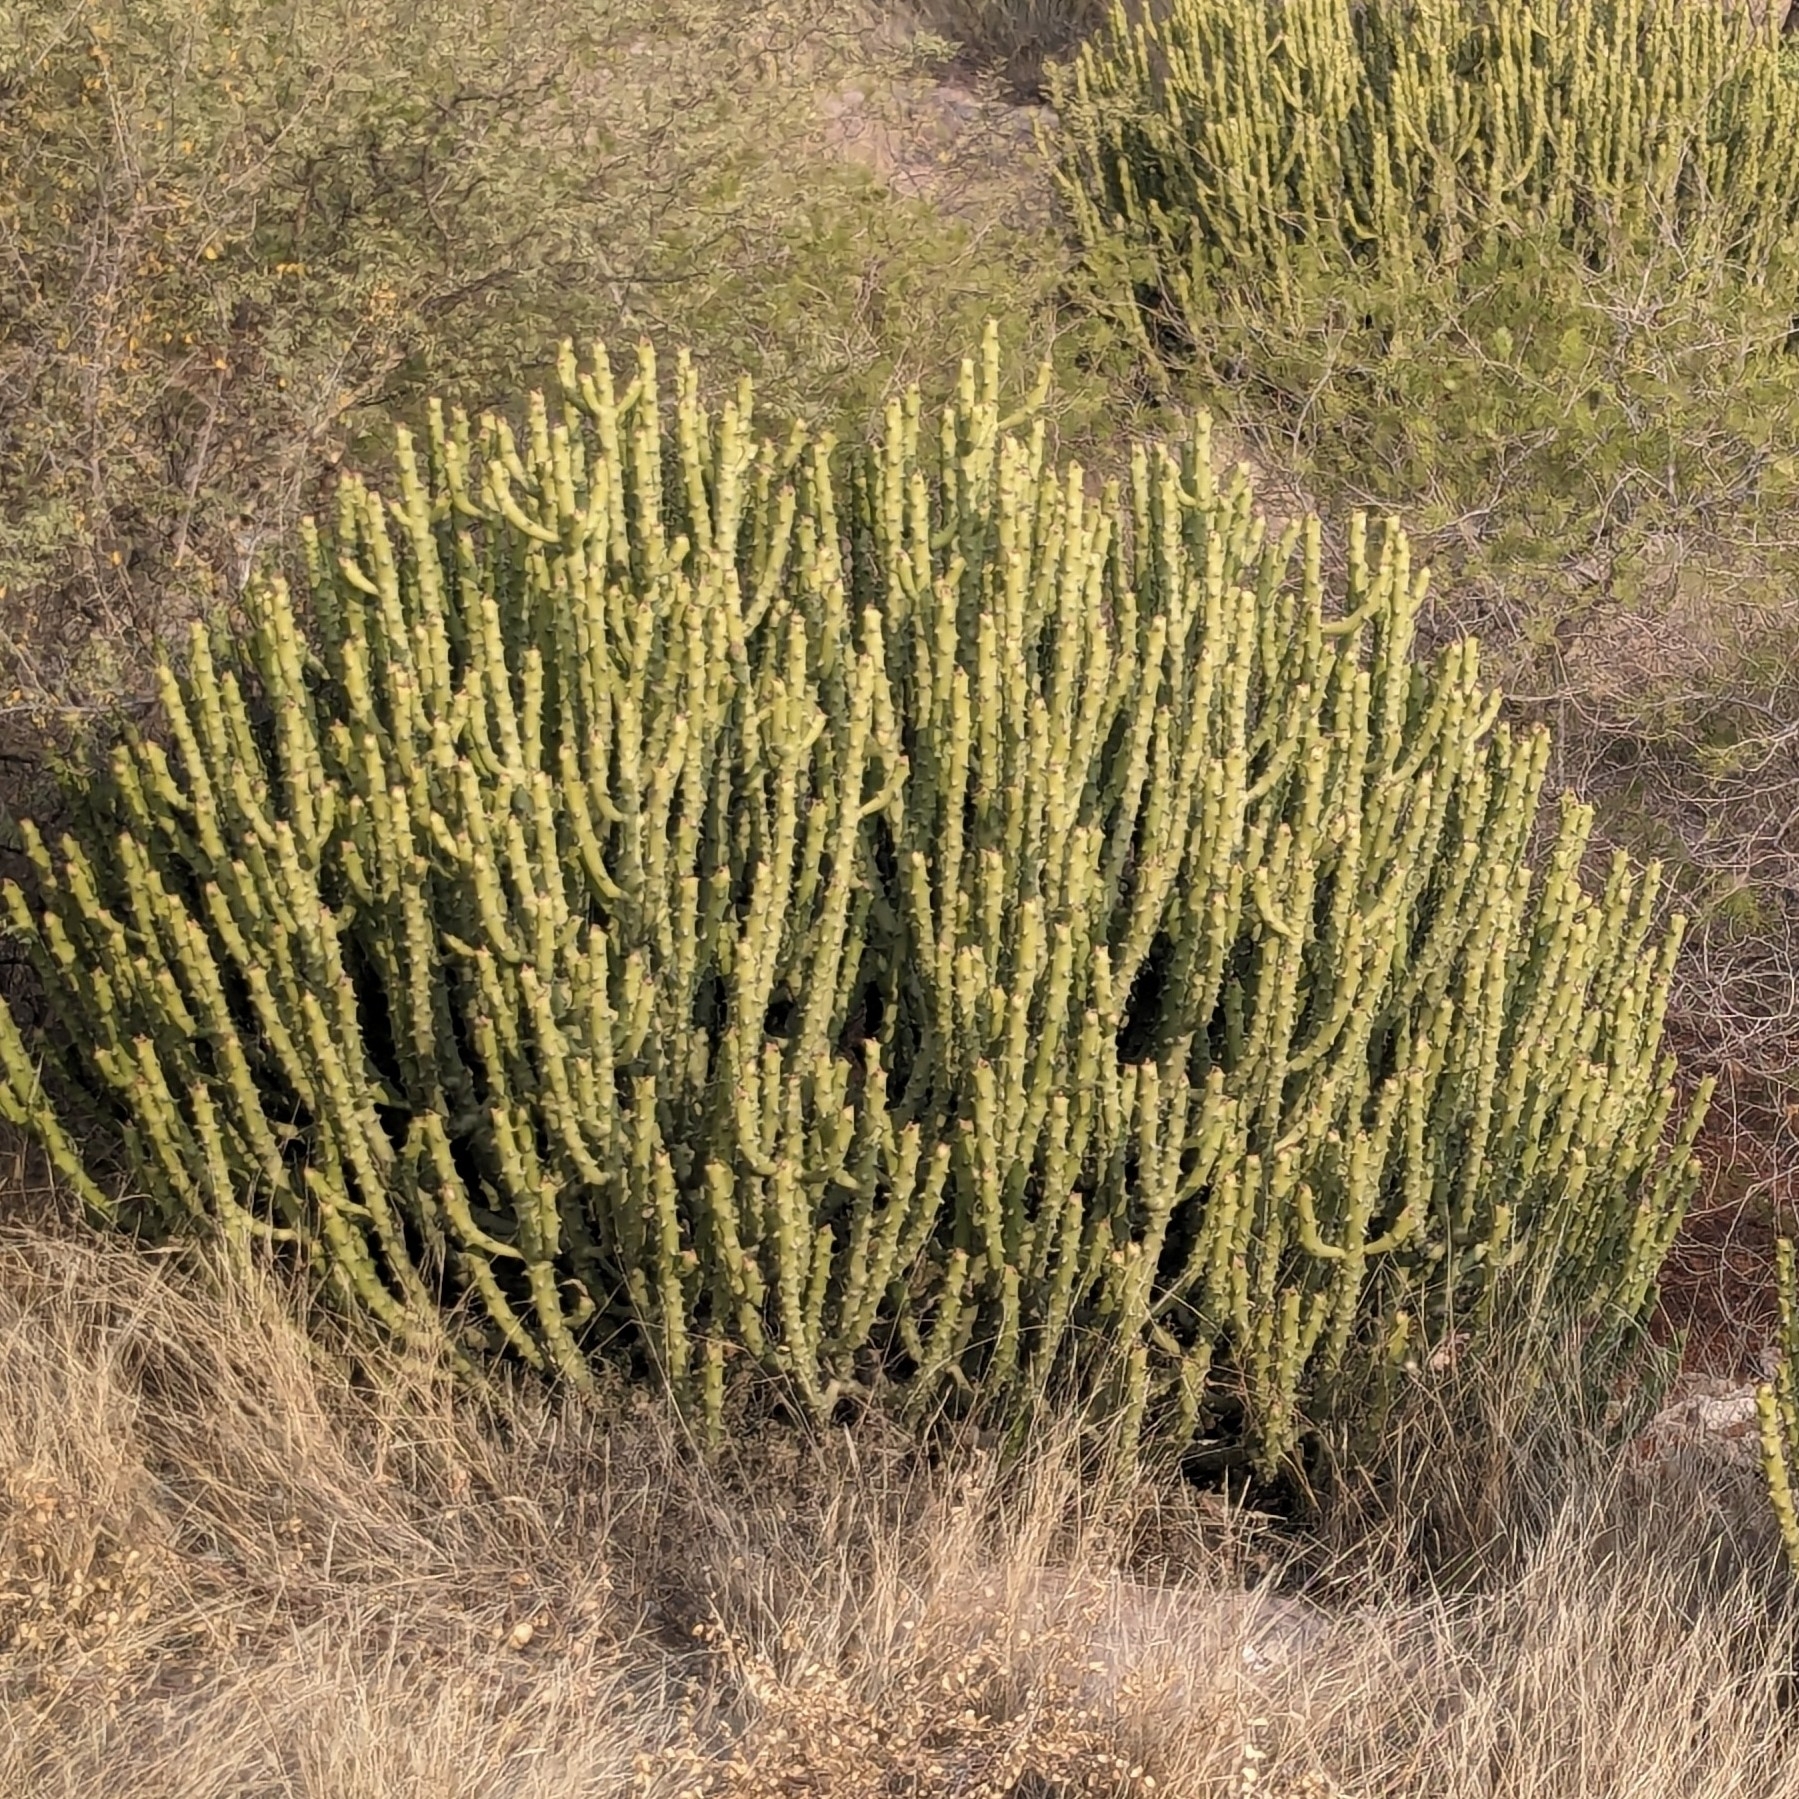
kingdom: Plantae
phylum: Tracheophyta
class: Magnoliopsida
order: Malpighiales
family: Euphorbiaceae
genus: Euphorbia
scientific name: Euphorbia caducifolia
